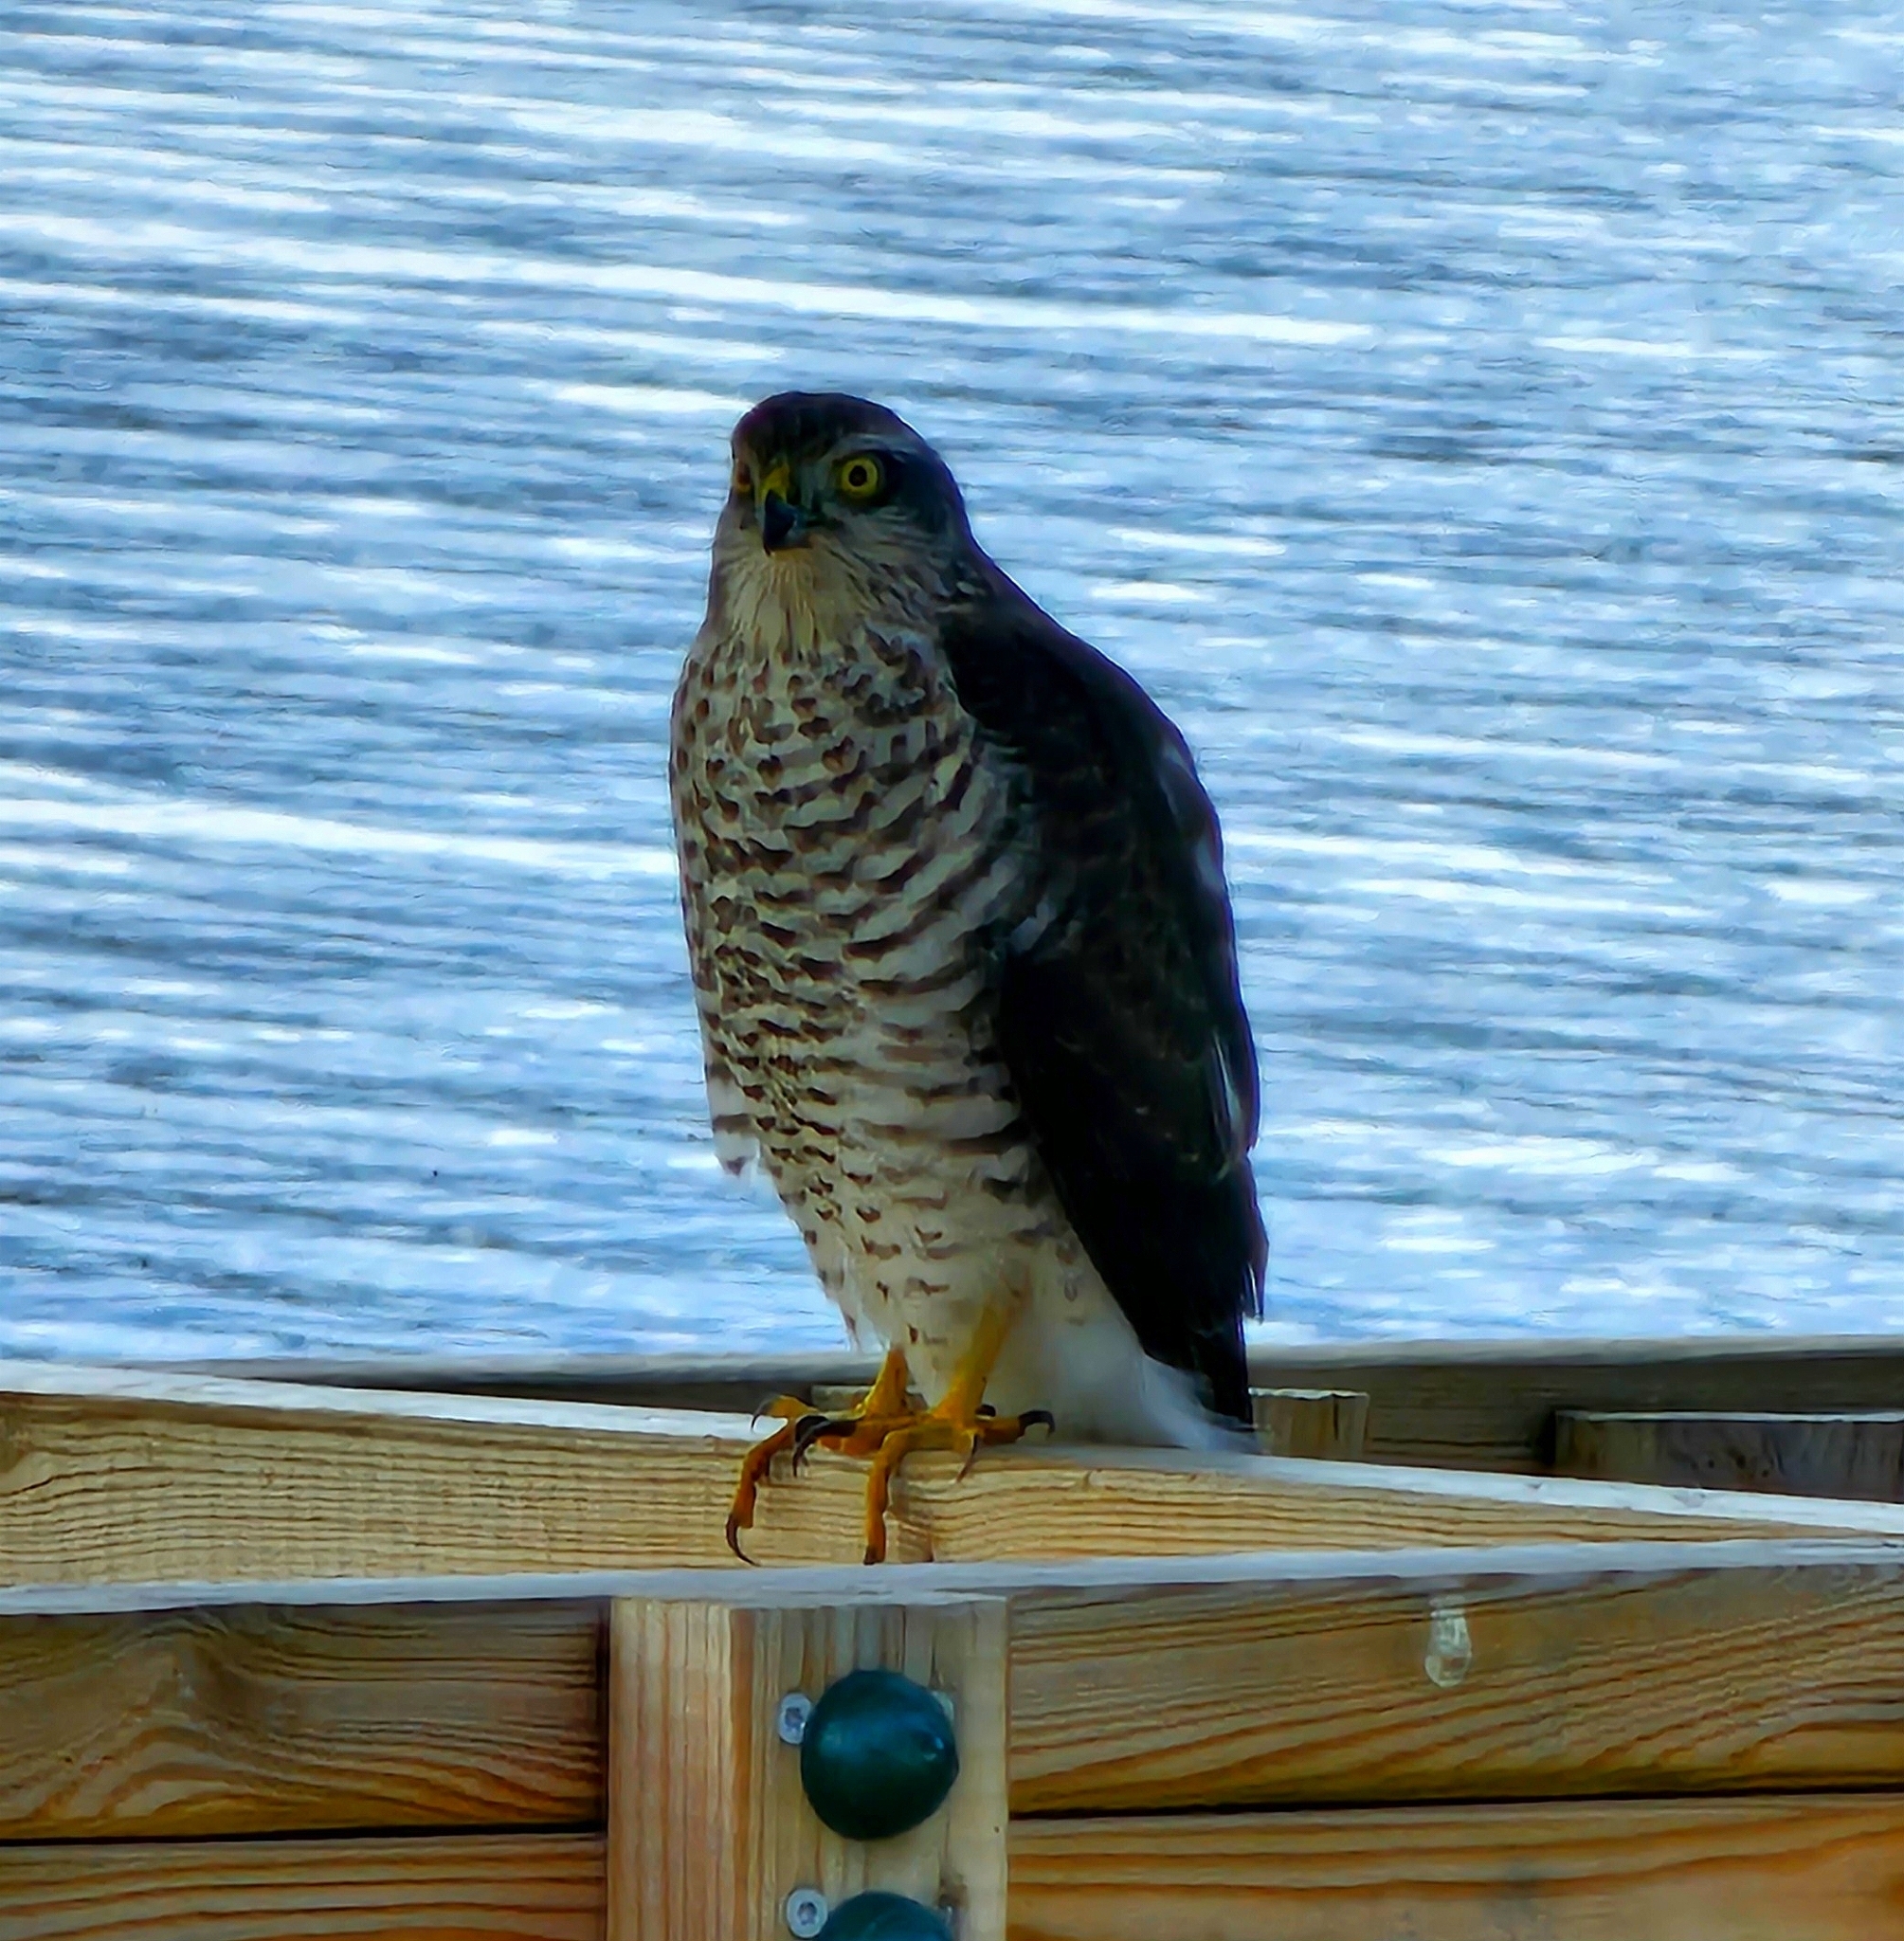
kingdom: Animalia
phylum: Chordata
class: Aves
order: Accipitriformes
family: Accipitridae
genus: Accipiter
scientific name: Accipiter nisus
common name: Eurasian sparrowhawk
